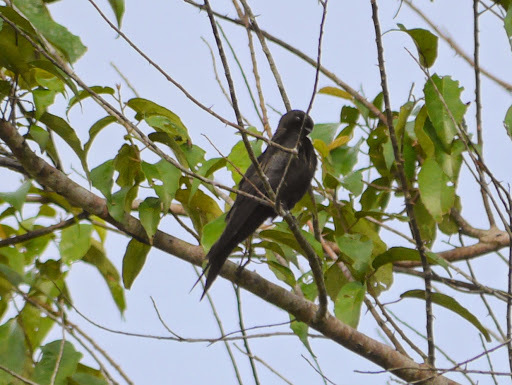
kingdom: Animalia
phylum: Chordata
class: Aves
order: Passeriformes
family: Hirundinidae
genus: Psalidoprocne
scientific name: Psalidoprocne pristoptera
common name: Black saw-wing
